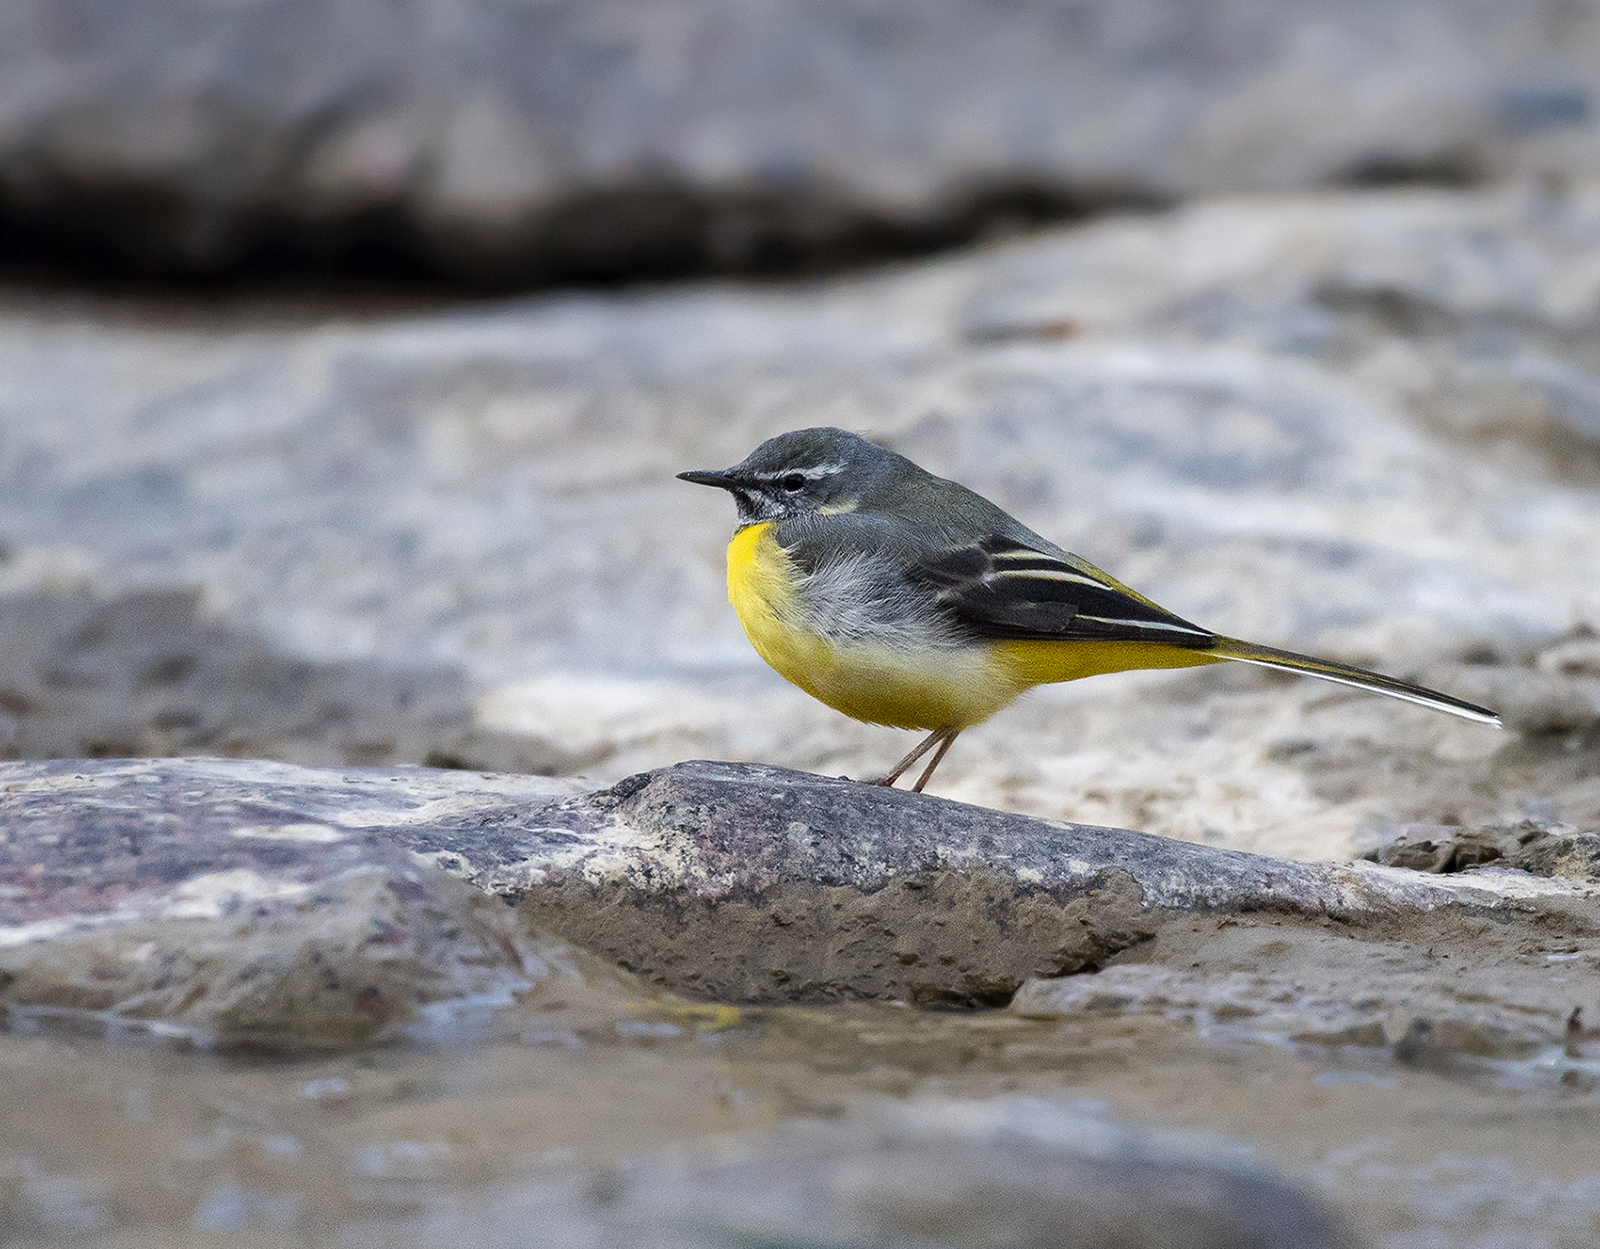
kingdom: Animalia
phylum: Chordata
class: Aves
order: Passeriformes
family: Motacillidae
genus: Motacilla
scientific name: Motacilla cinerea
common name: Grey wagtail
